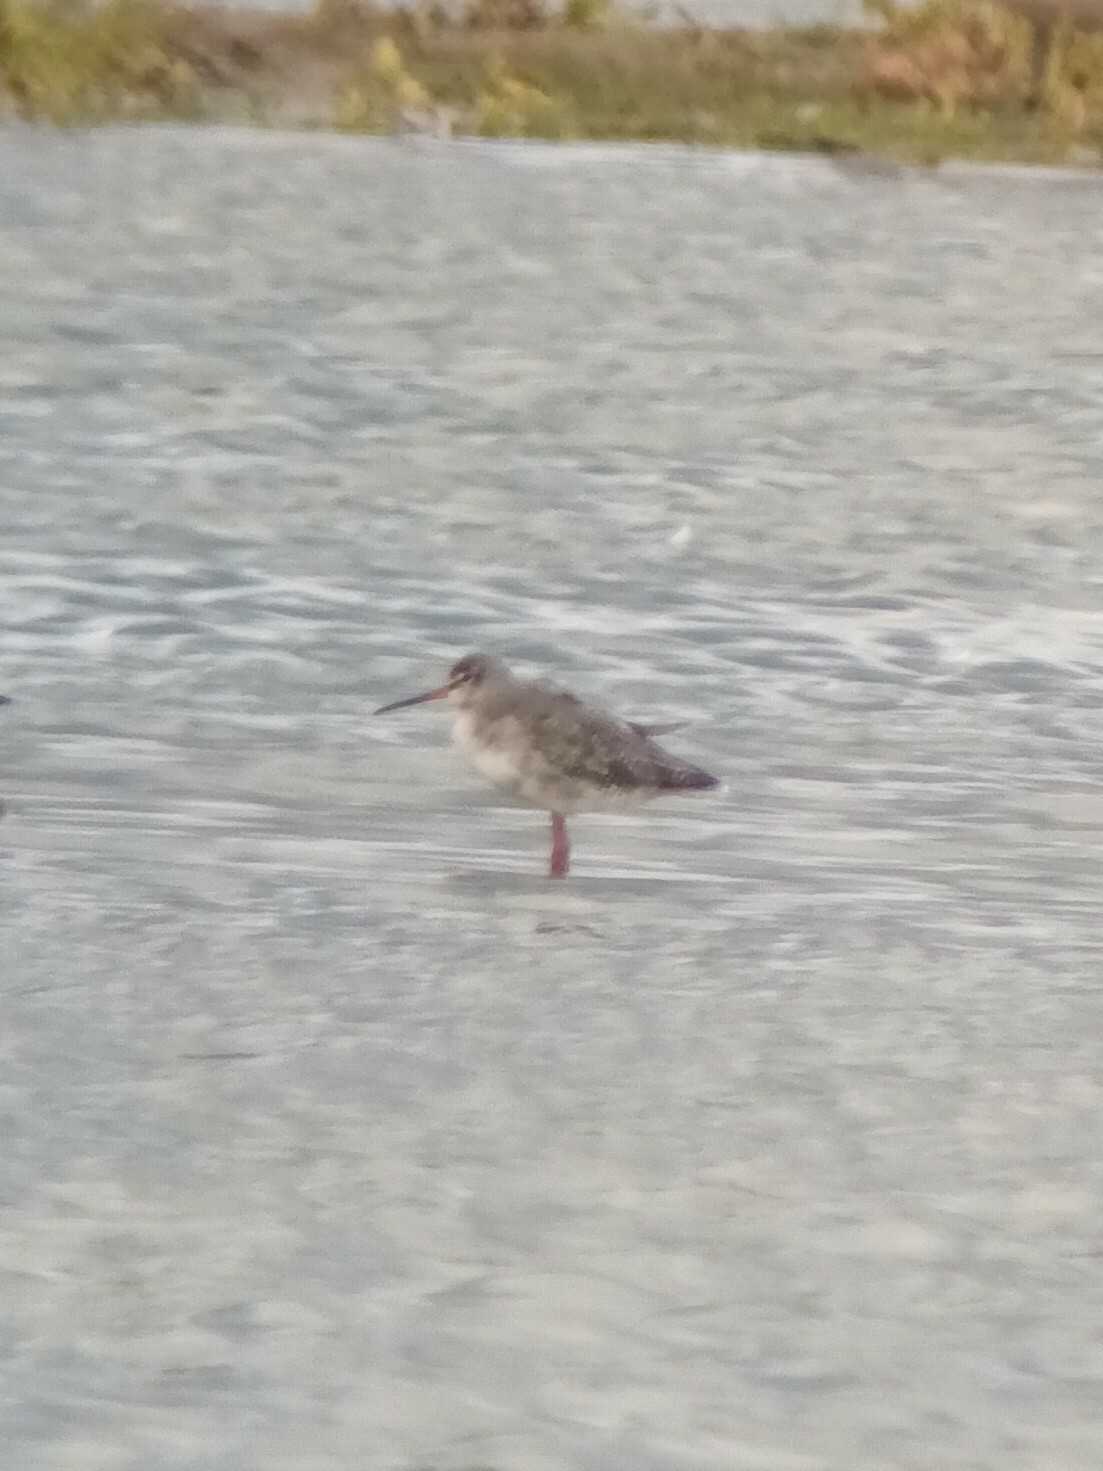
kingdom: Animalia
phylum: Chordata
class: Aves
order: Charadriiformes
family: Scolopacidae
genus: Tringa
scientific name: Tringa erythropus
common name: Spotted redshank
